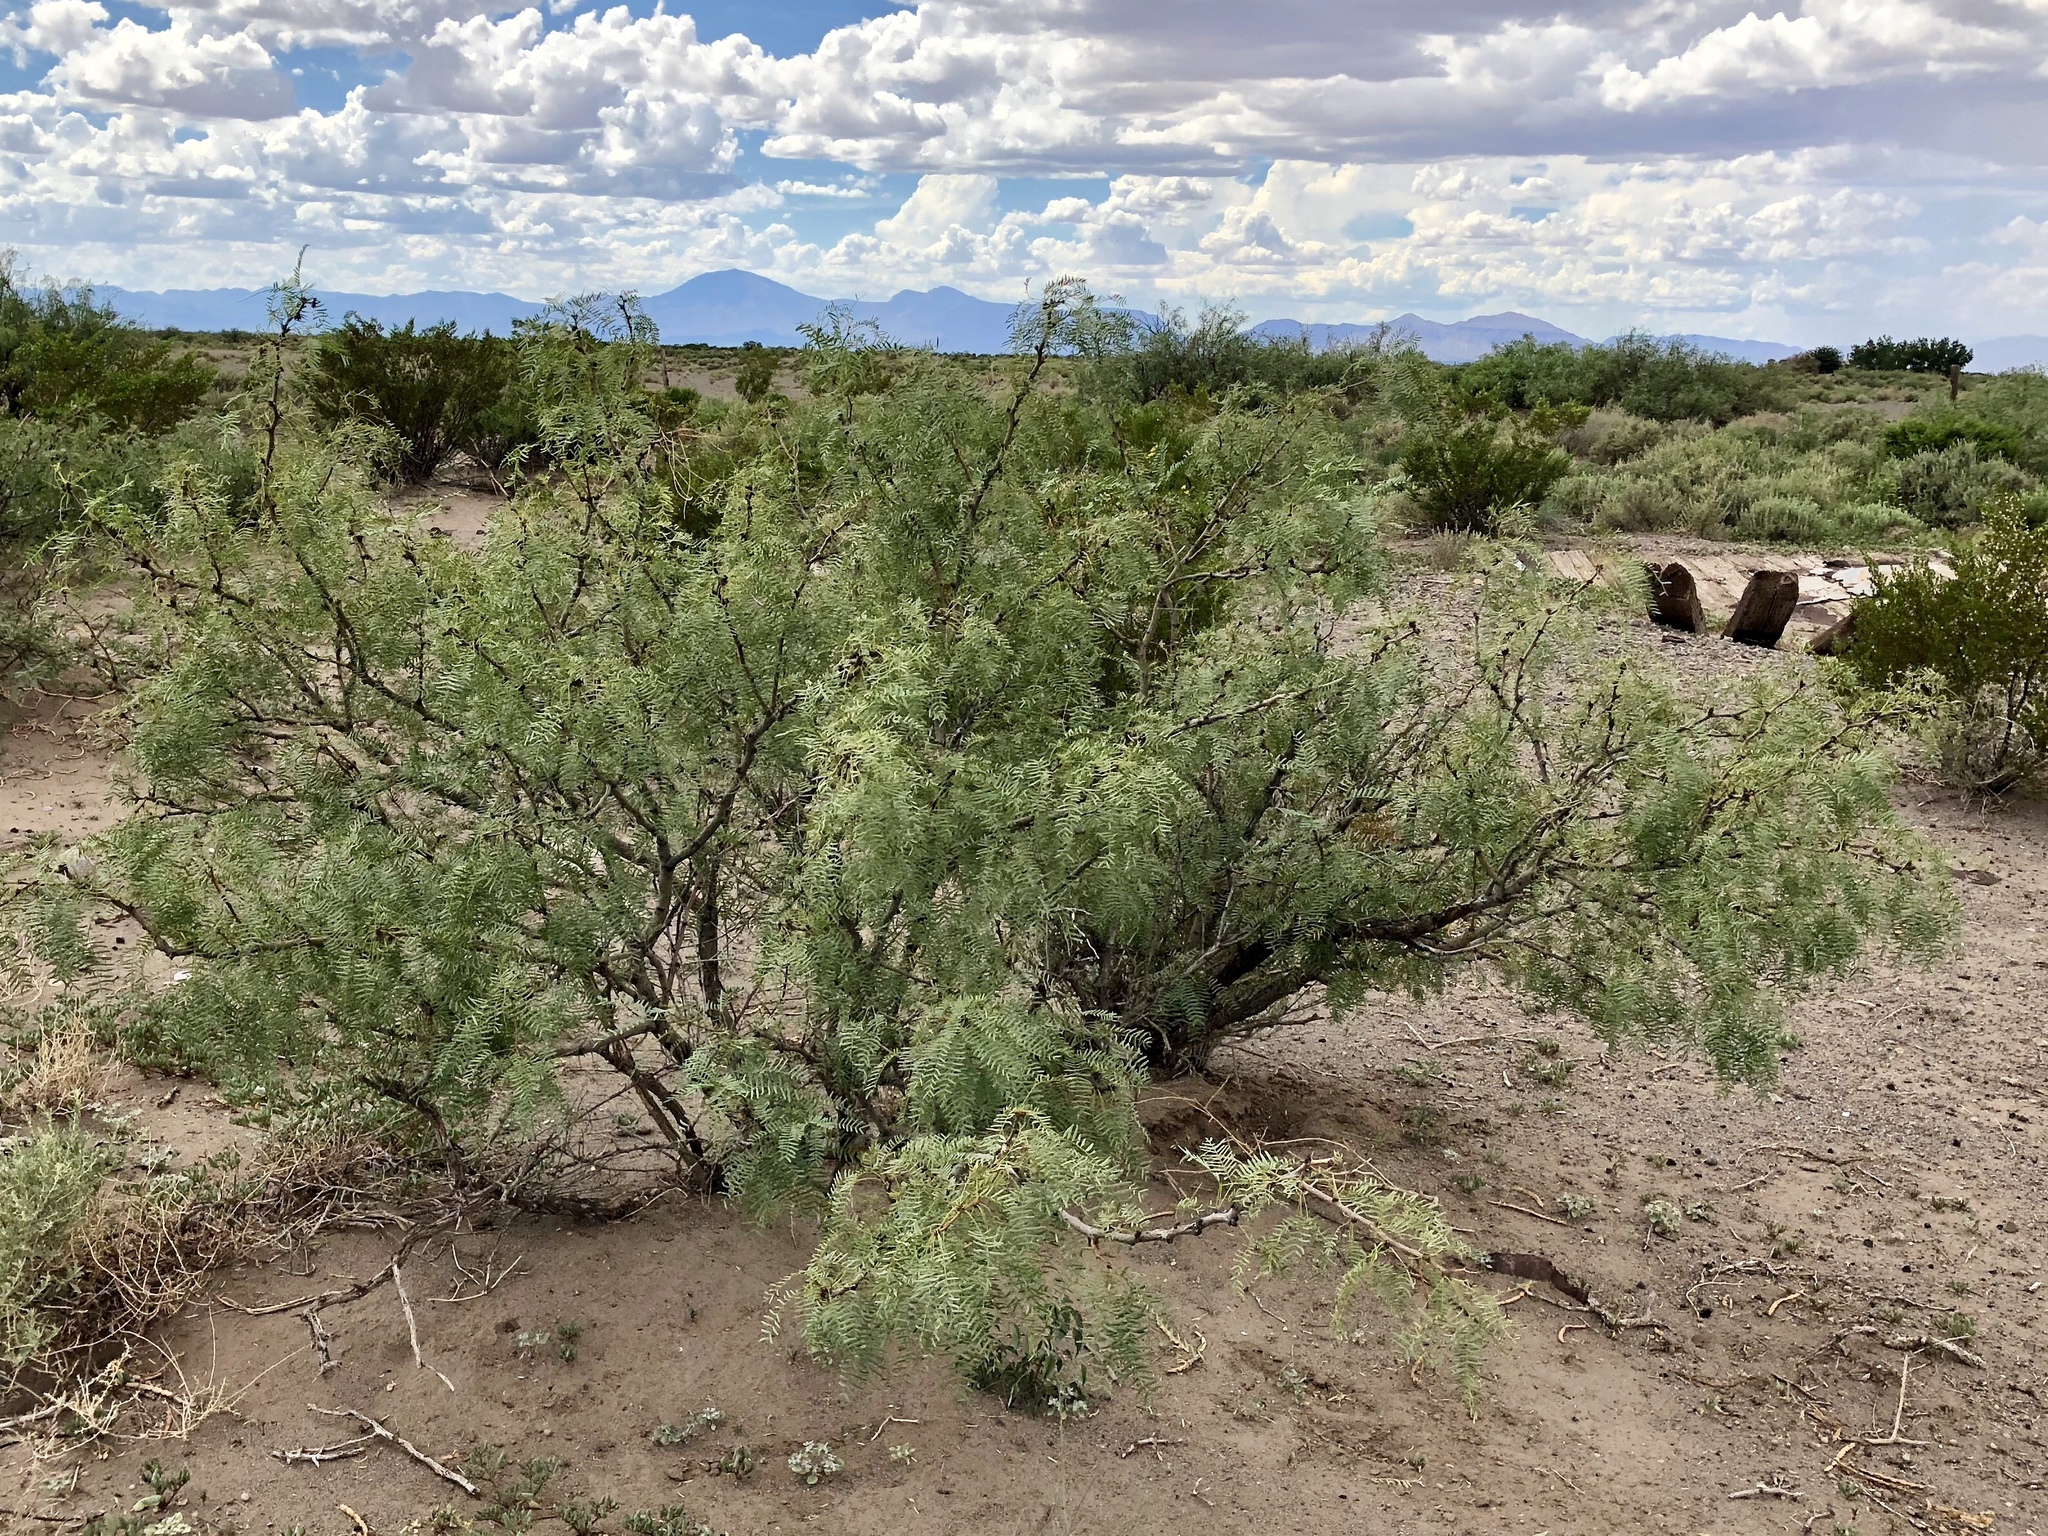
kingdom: Plantae
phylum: Tracheophyta
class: Magnoliopsida
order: Fabales
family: Fabaceae
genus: Prosopis
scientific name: Prosopis glandulosa
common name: Honey mesquite
